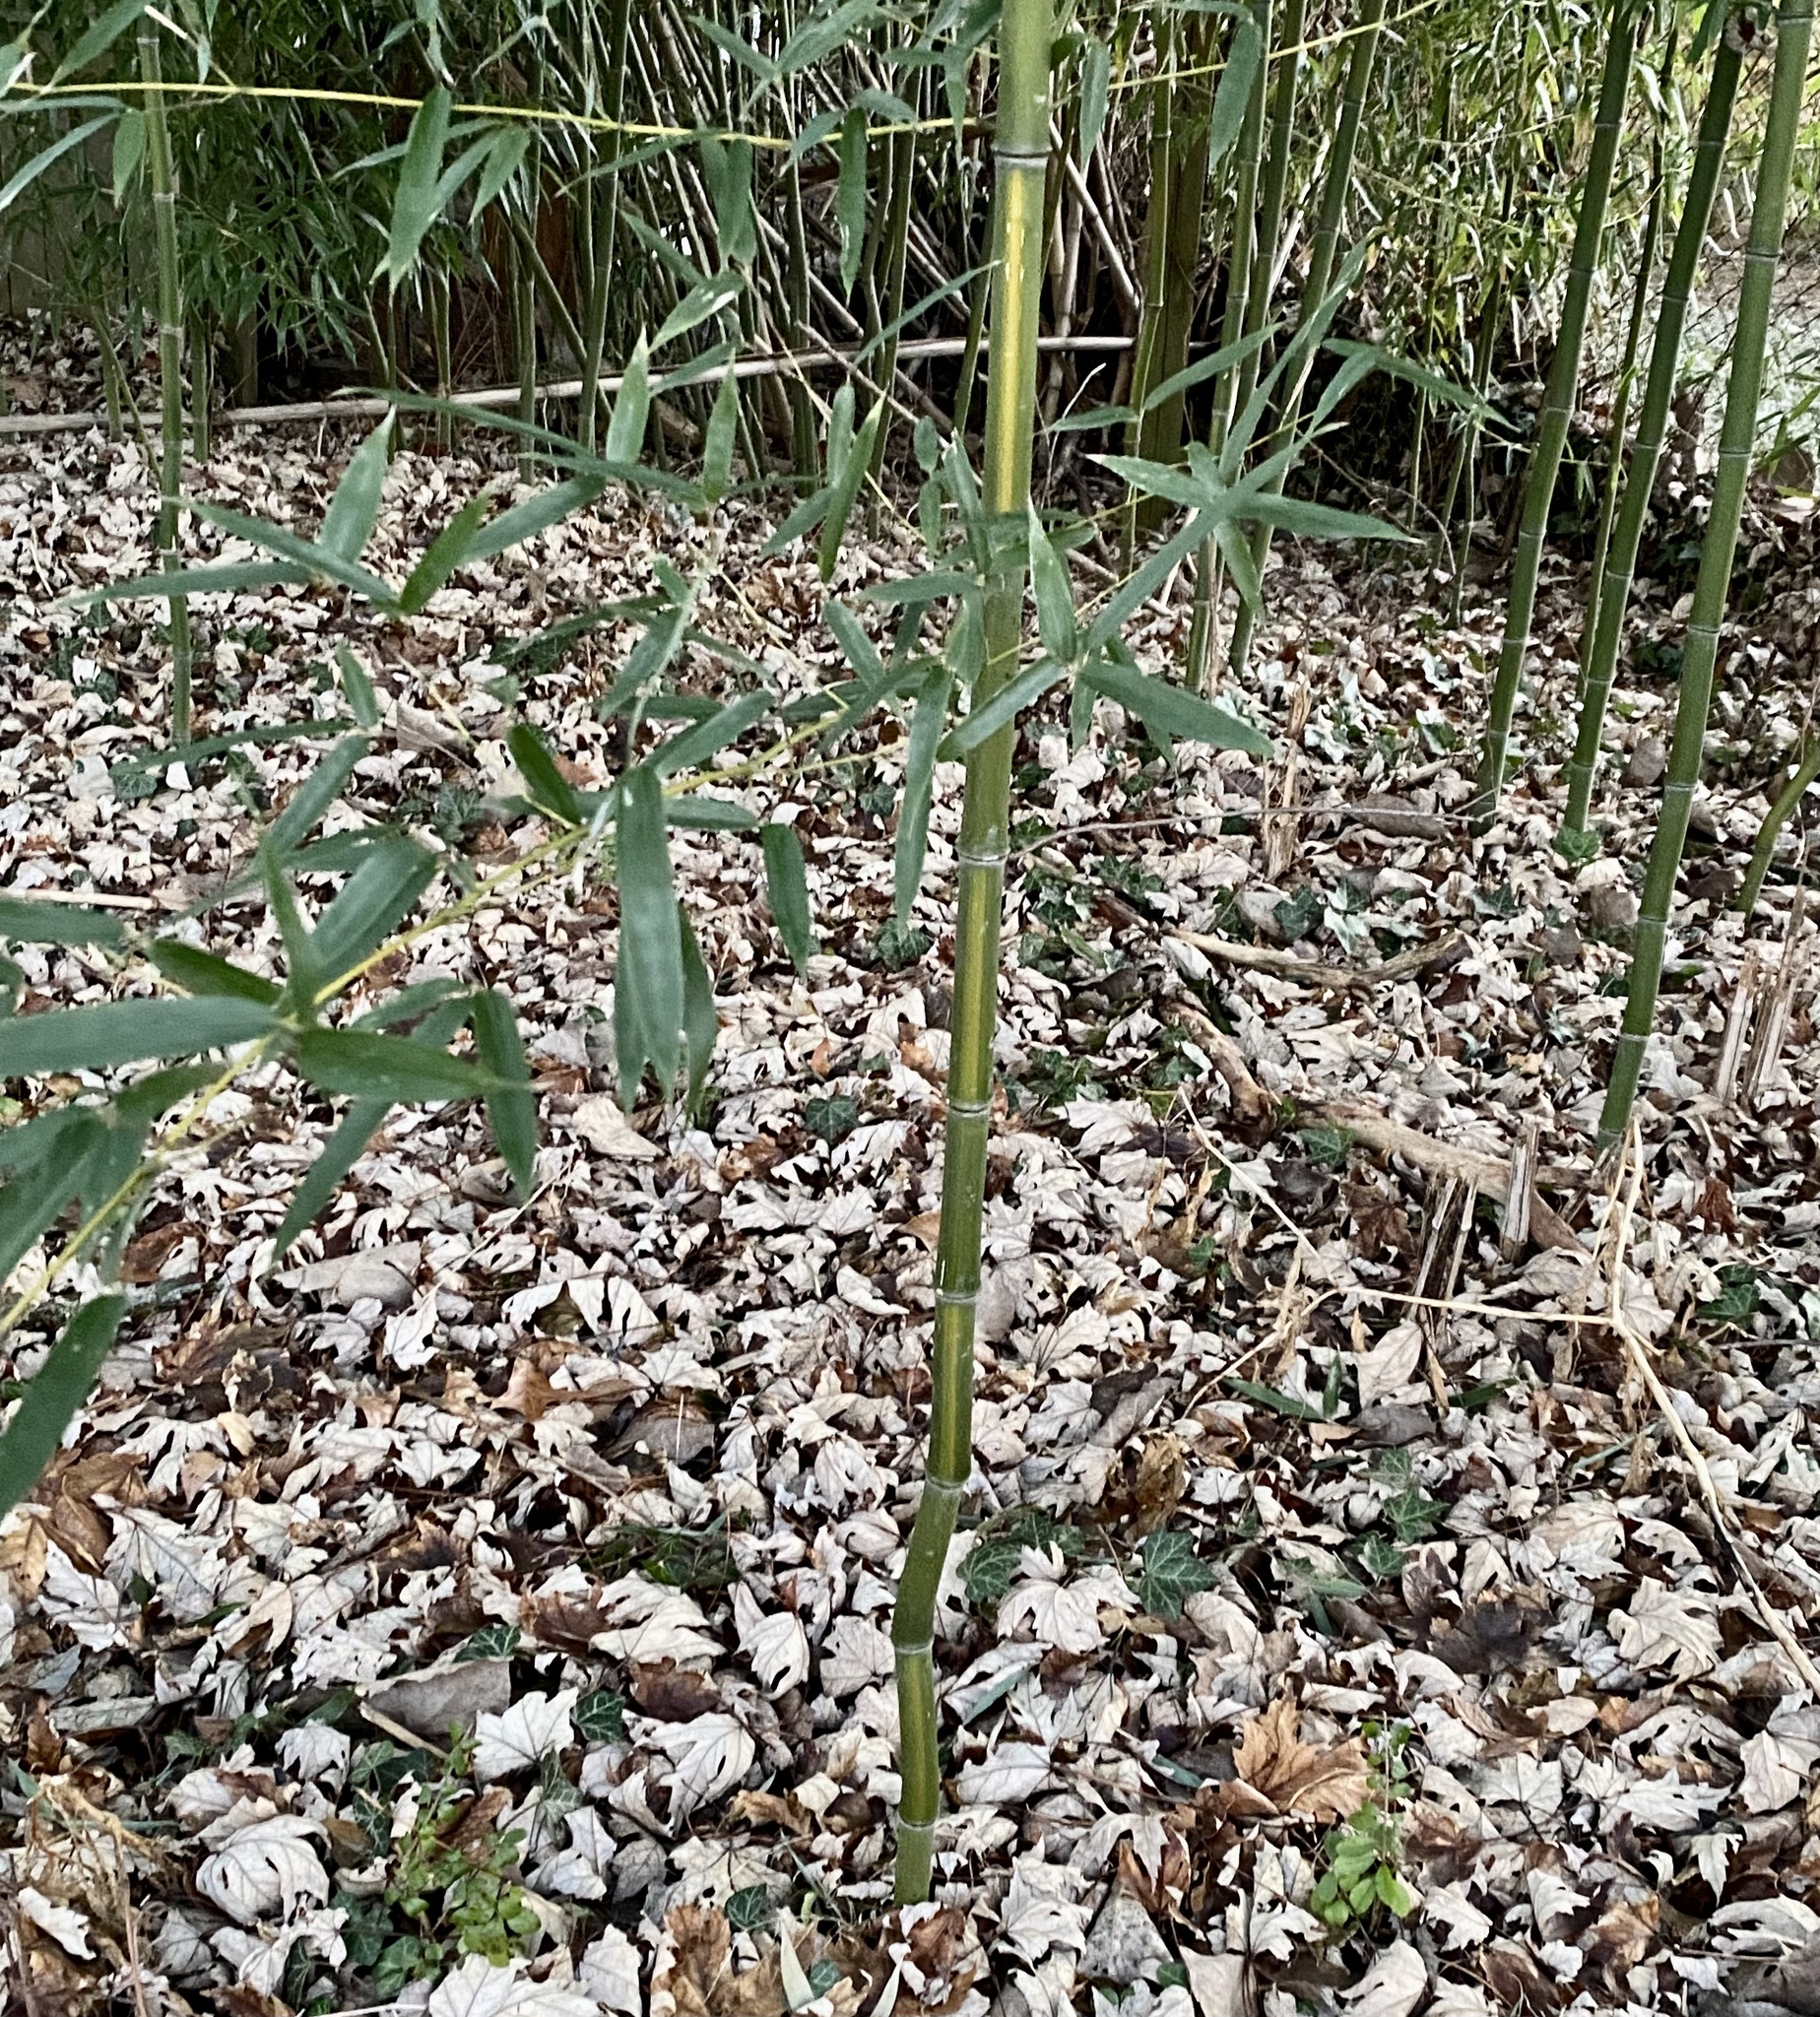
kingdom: Plantae
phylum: Tracheophyta
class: Liliopsida
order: Poales
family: Poaceae
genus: Phyllostachys
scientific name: Phyllostachys aureosulcata
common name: Yellow groove bamboo
